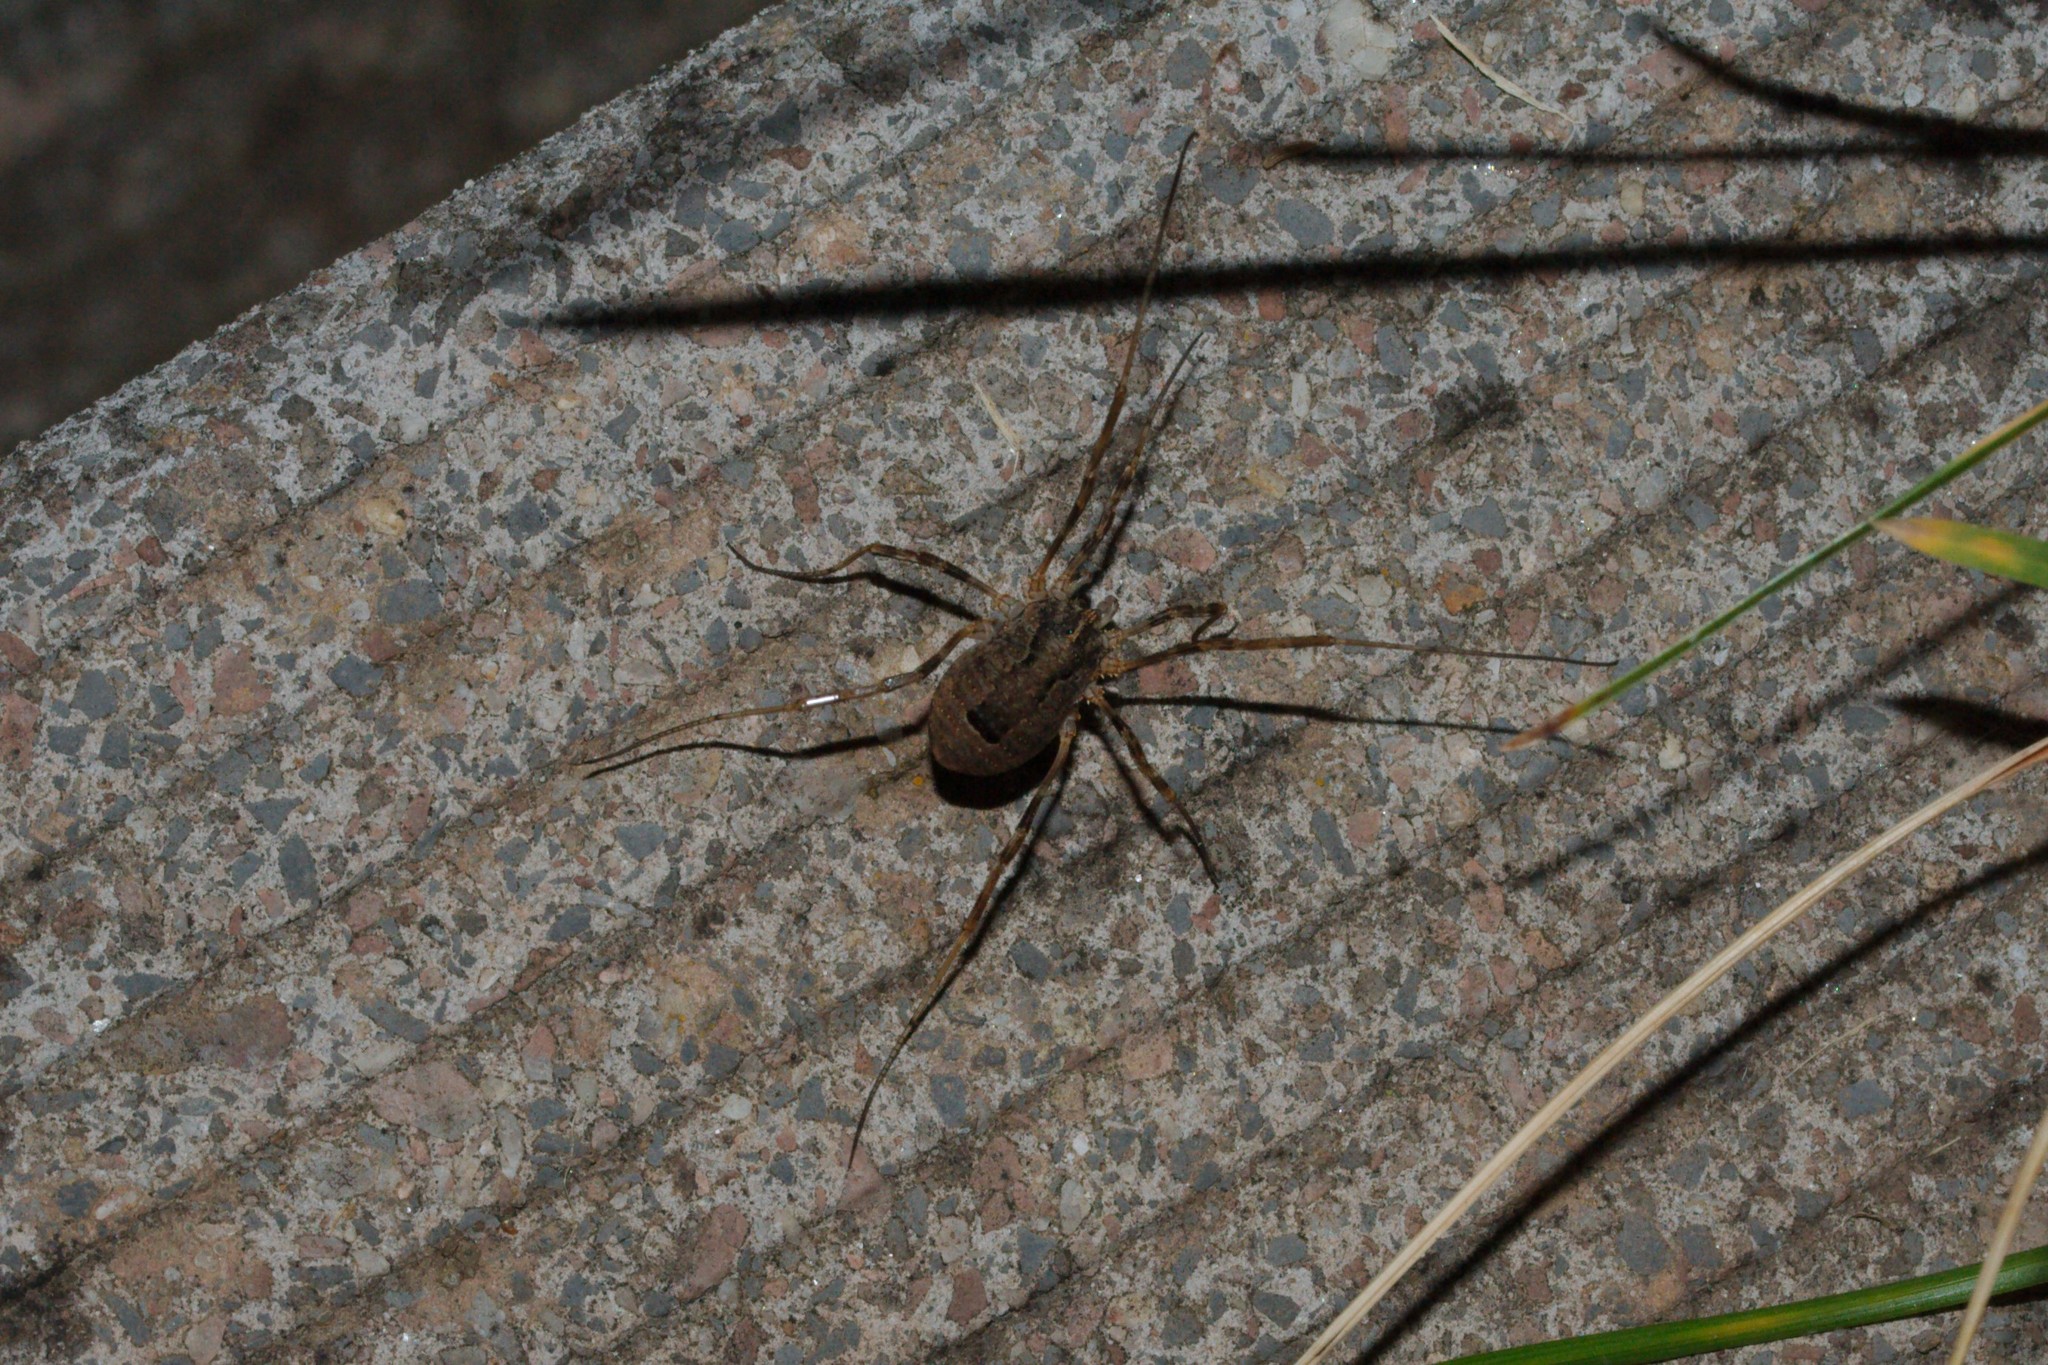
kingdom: Animalia
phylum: Arthropoda
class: Arachnida
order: Opiliones
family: Phalangiidae
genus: Odiellus
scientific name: Odiellus spinosus
